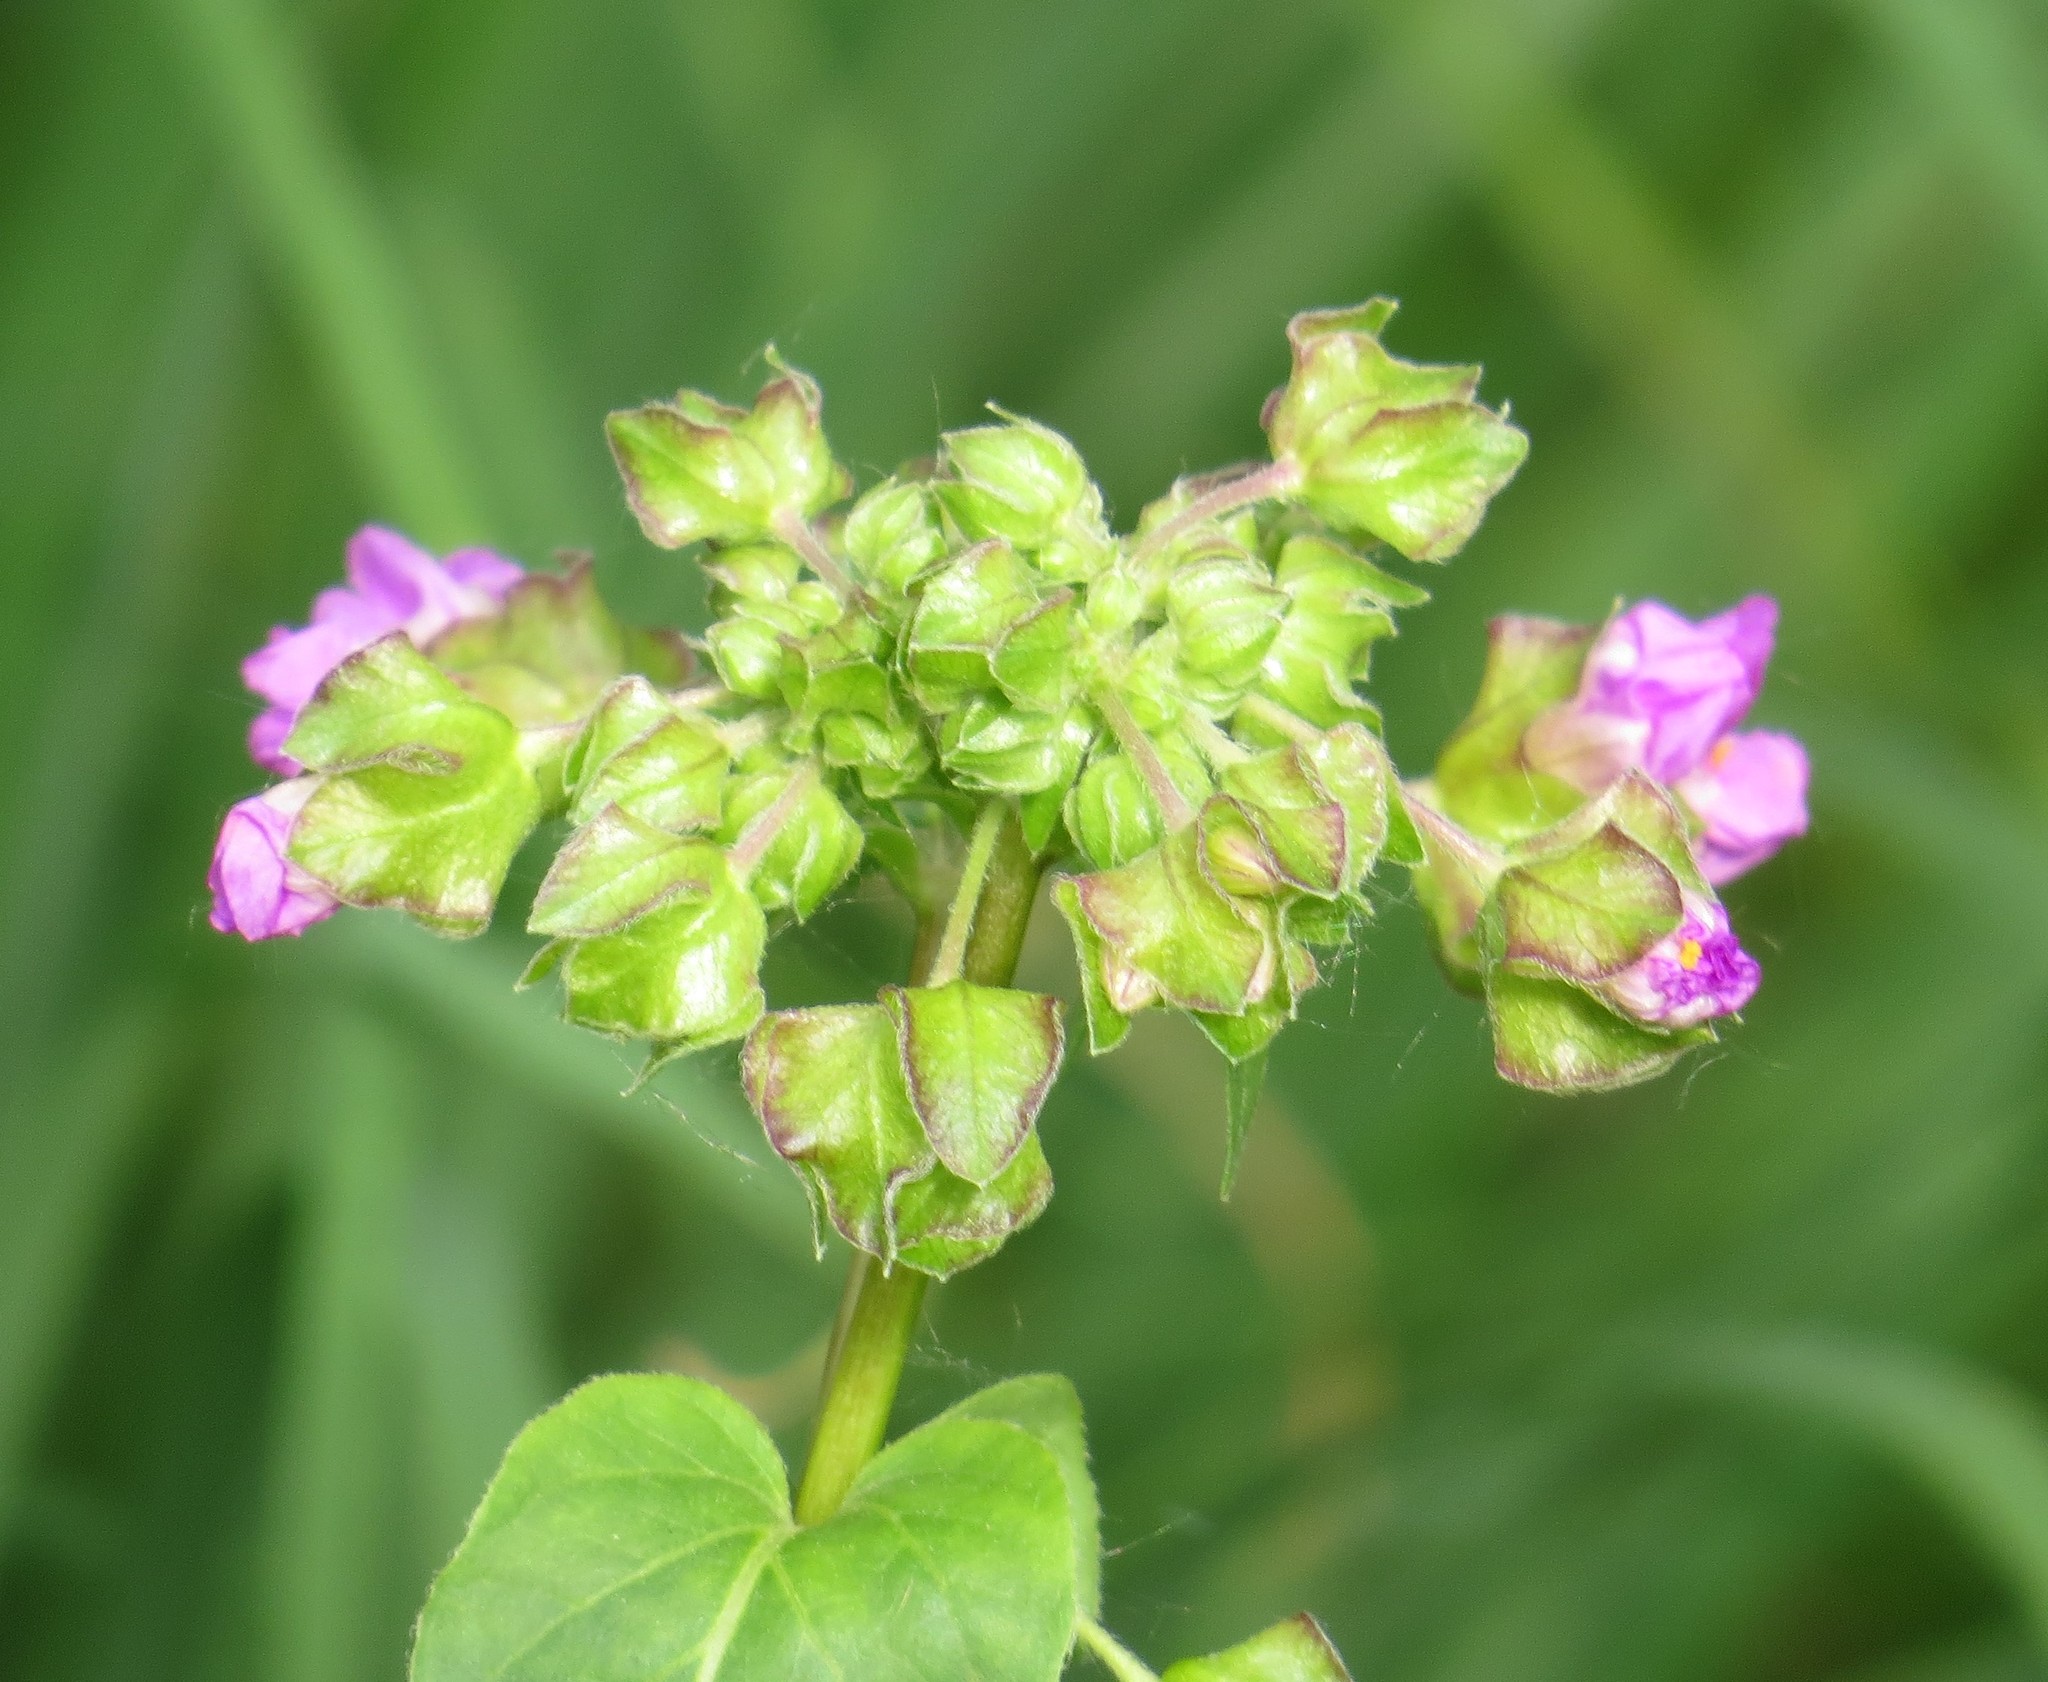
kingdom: Plantae
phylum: Tracheophyta
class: Magnoliopsida
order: Caryophyllales
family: Nyctaginaceae
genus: Mirabilis
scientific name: Mirabilis nyctaginea
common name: Umbrella wort
